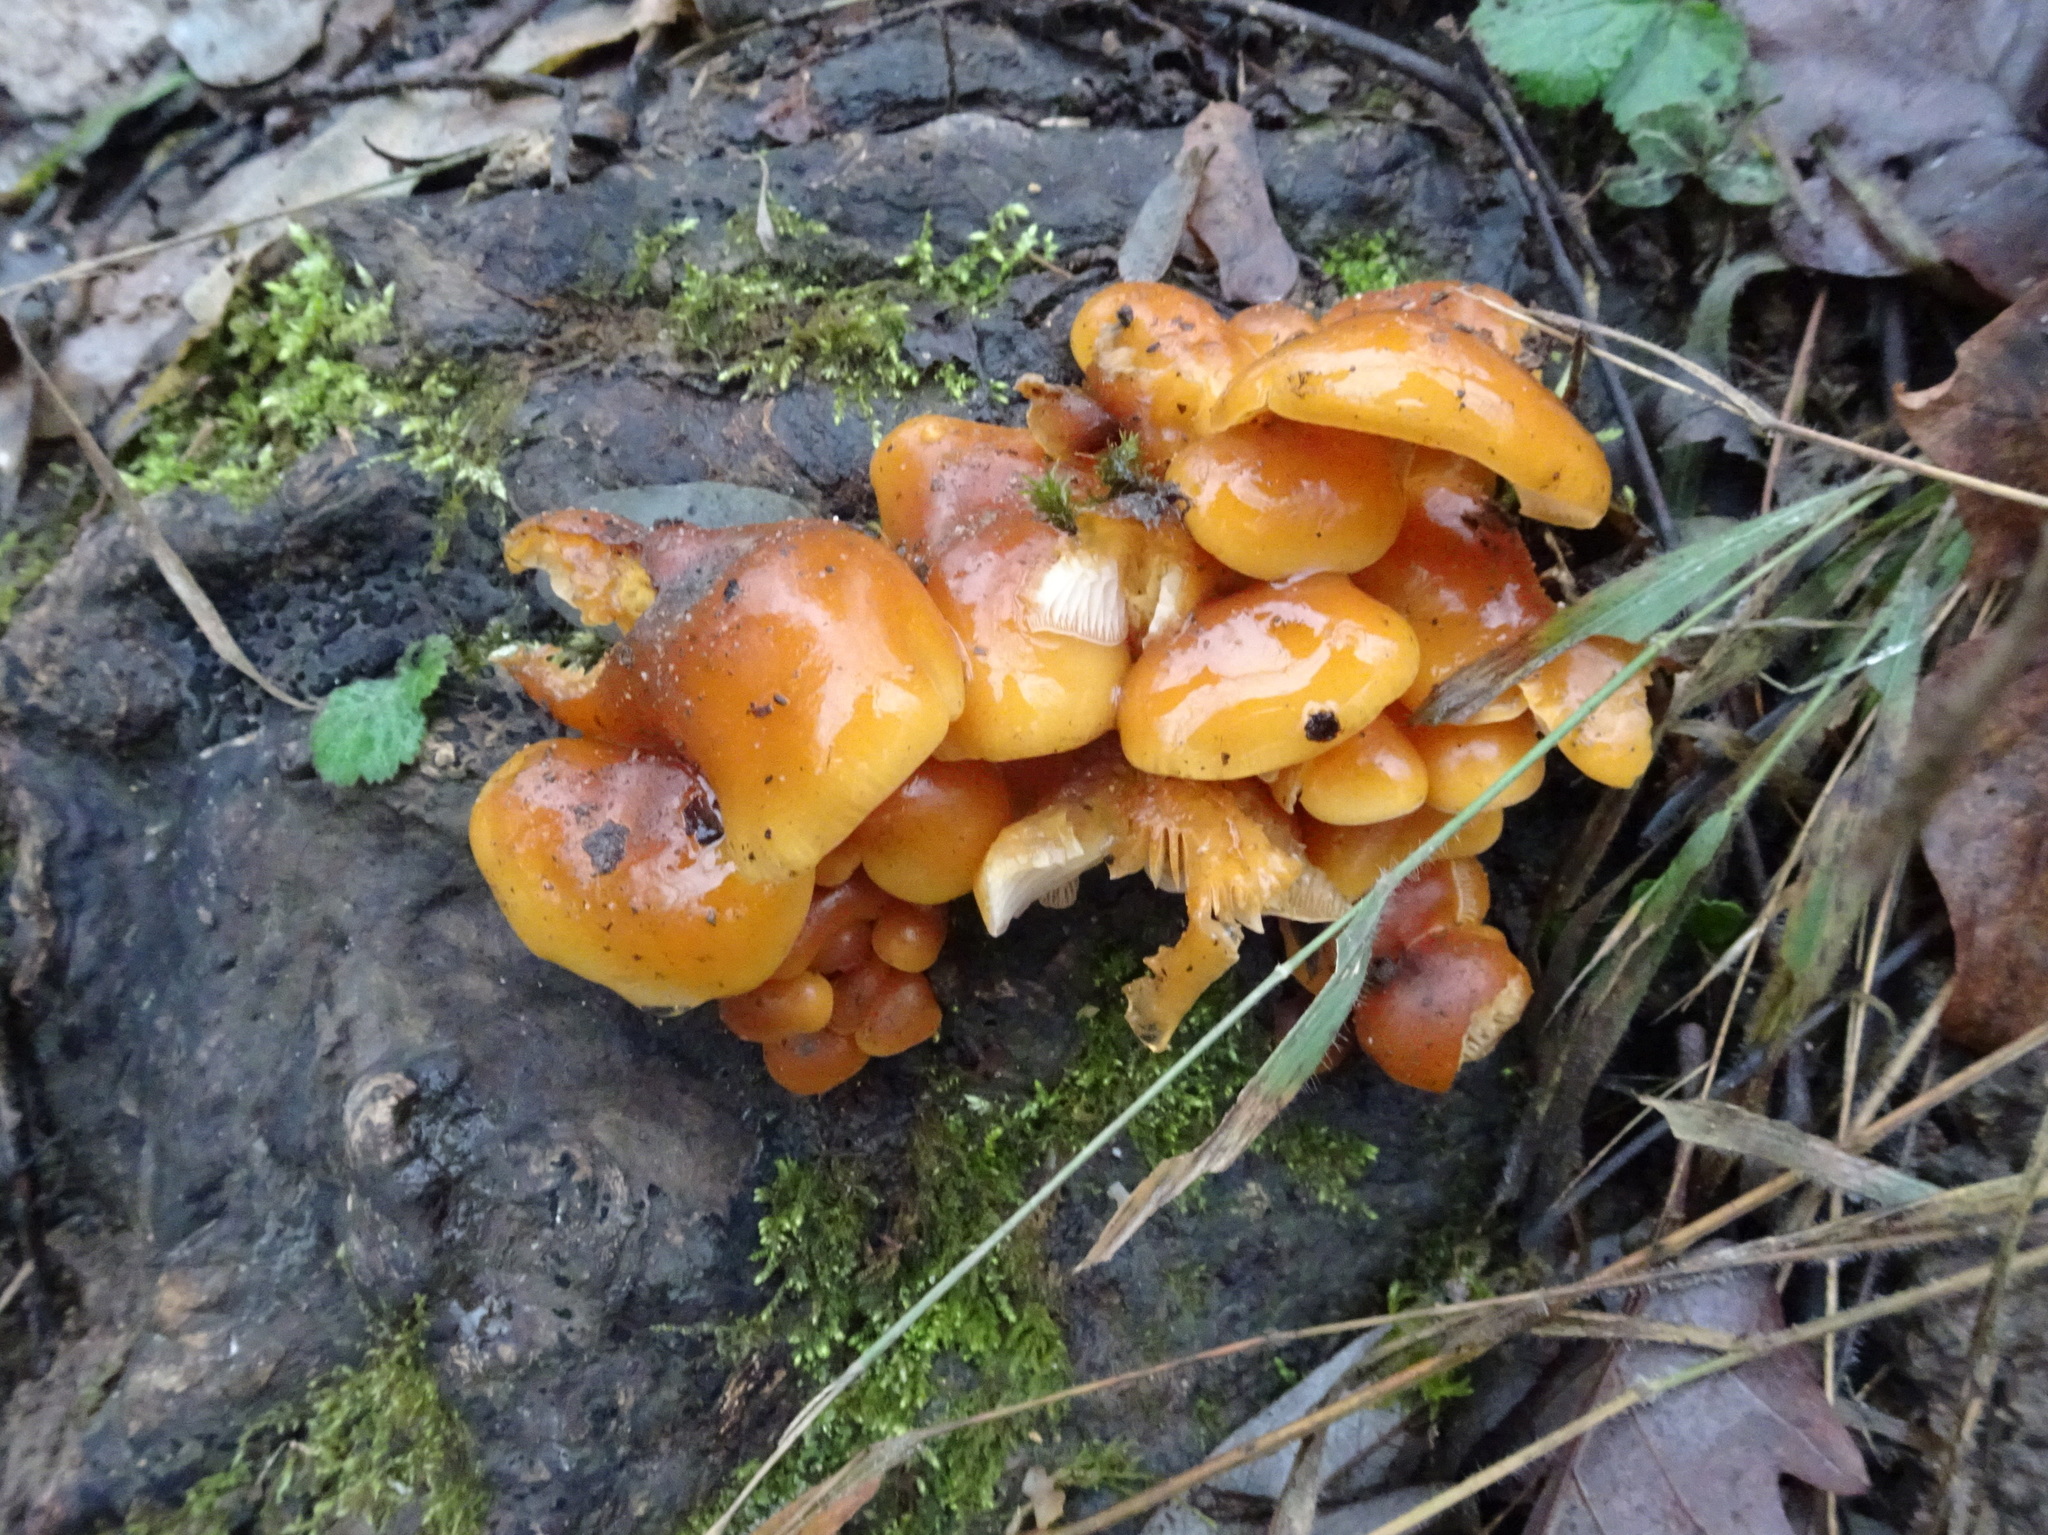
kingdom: Fungi
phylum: Basidiomycota
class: Agaricomycetes
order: Agaricales
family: Physalacriaceae
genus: Flammulina
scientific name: Flammulina
